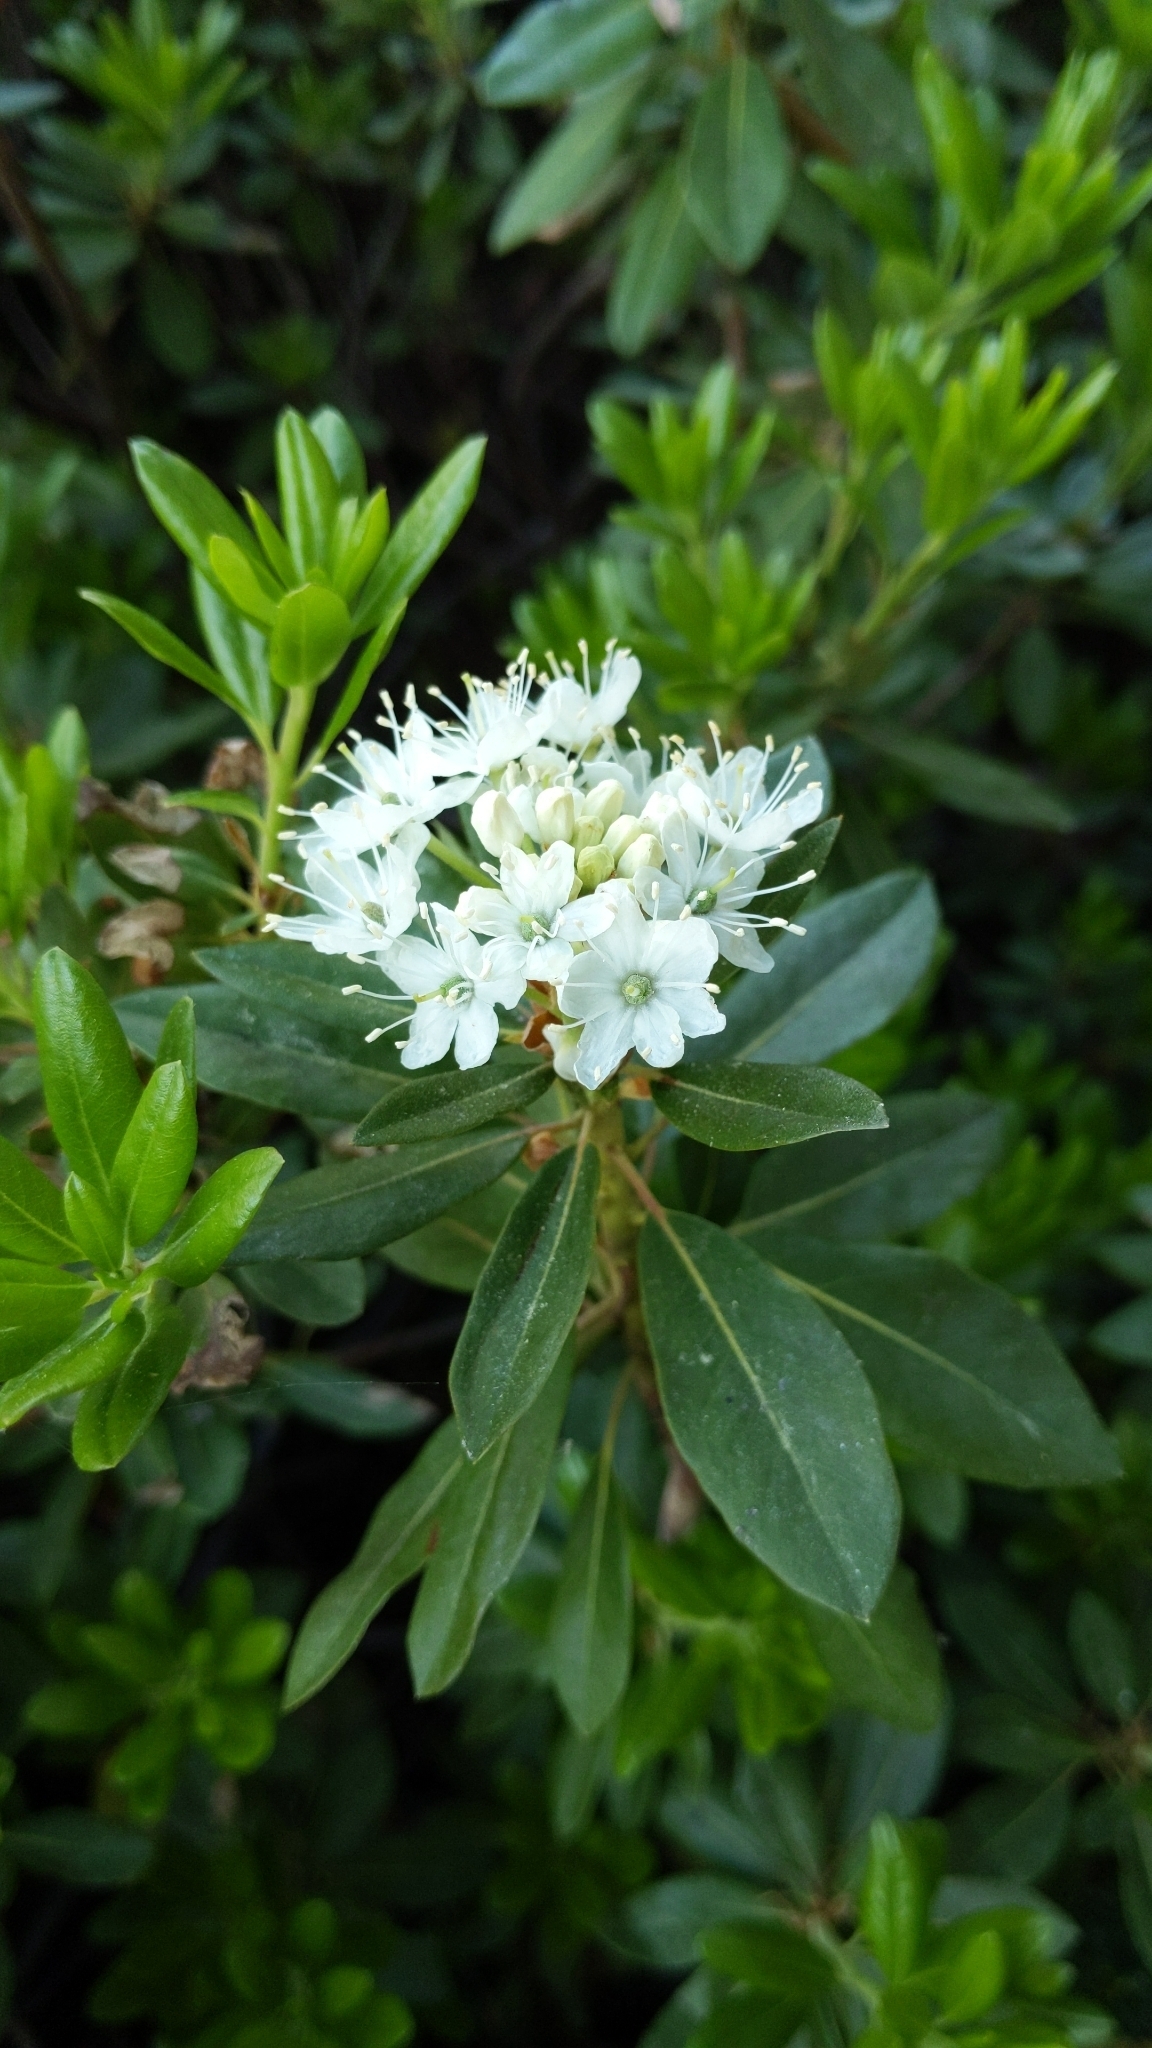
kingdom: Plantae
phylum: Tracheophyta
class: Magnoliopsida
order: Ericales
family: Ericaceae
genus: Rhododendron
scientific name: Rhododendron columbianum
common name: Western labrador tea
